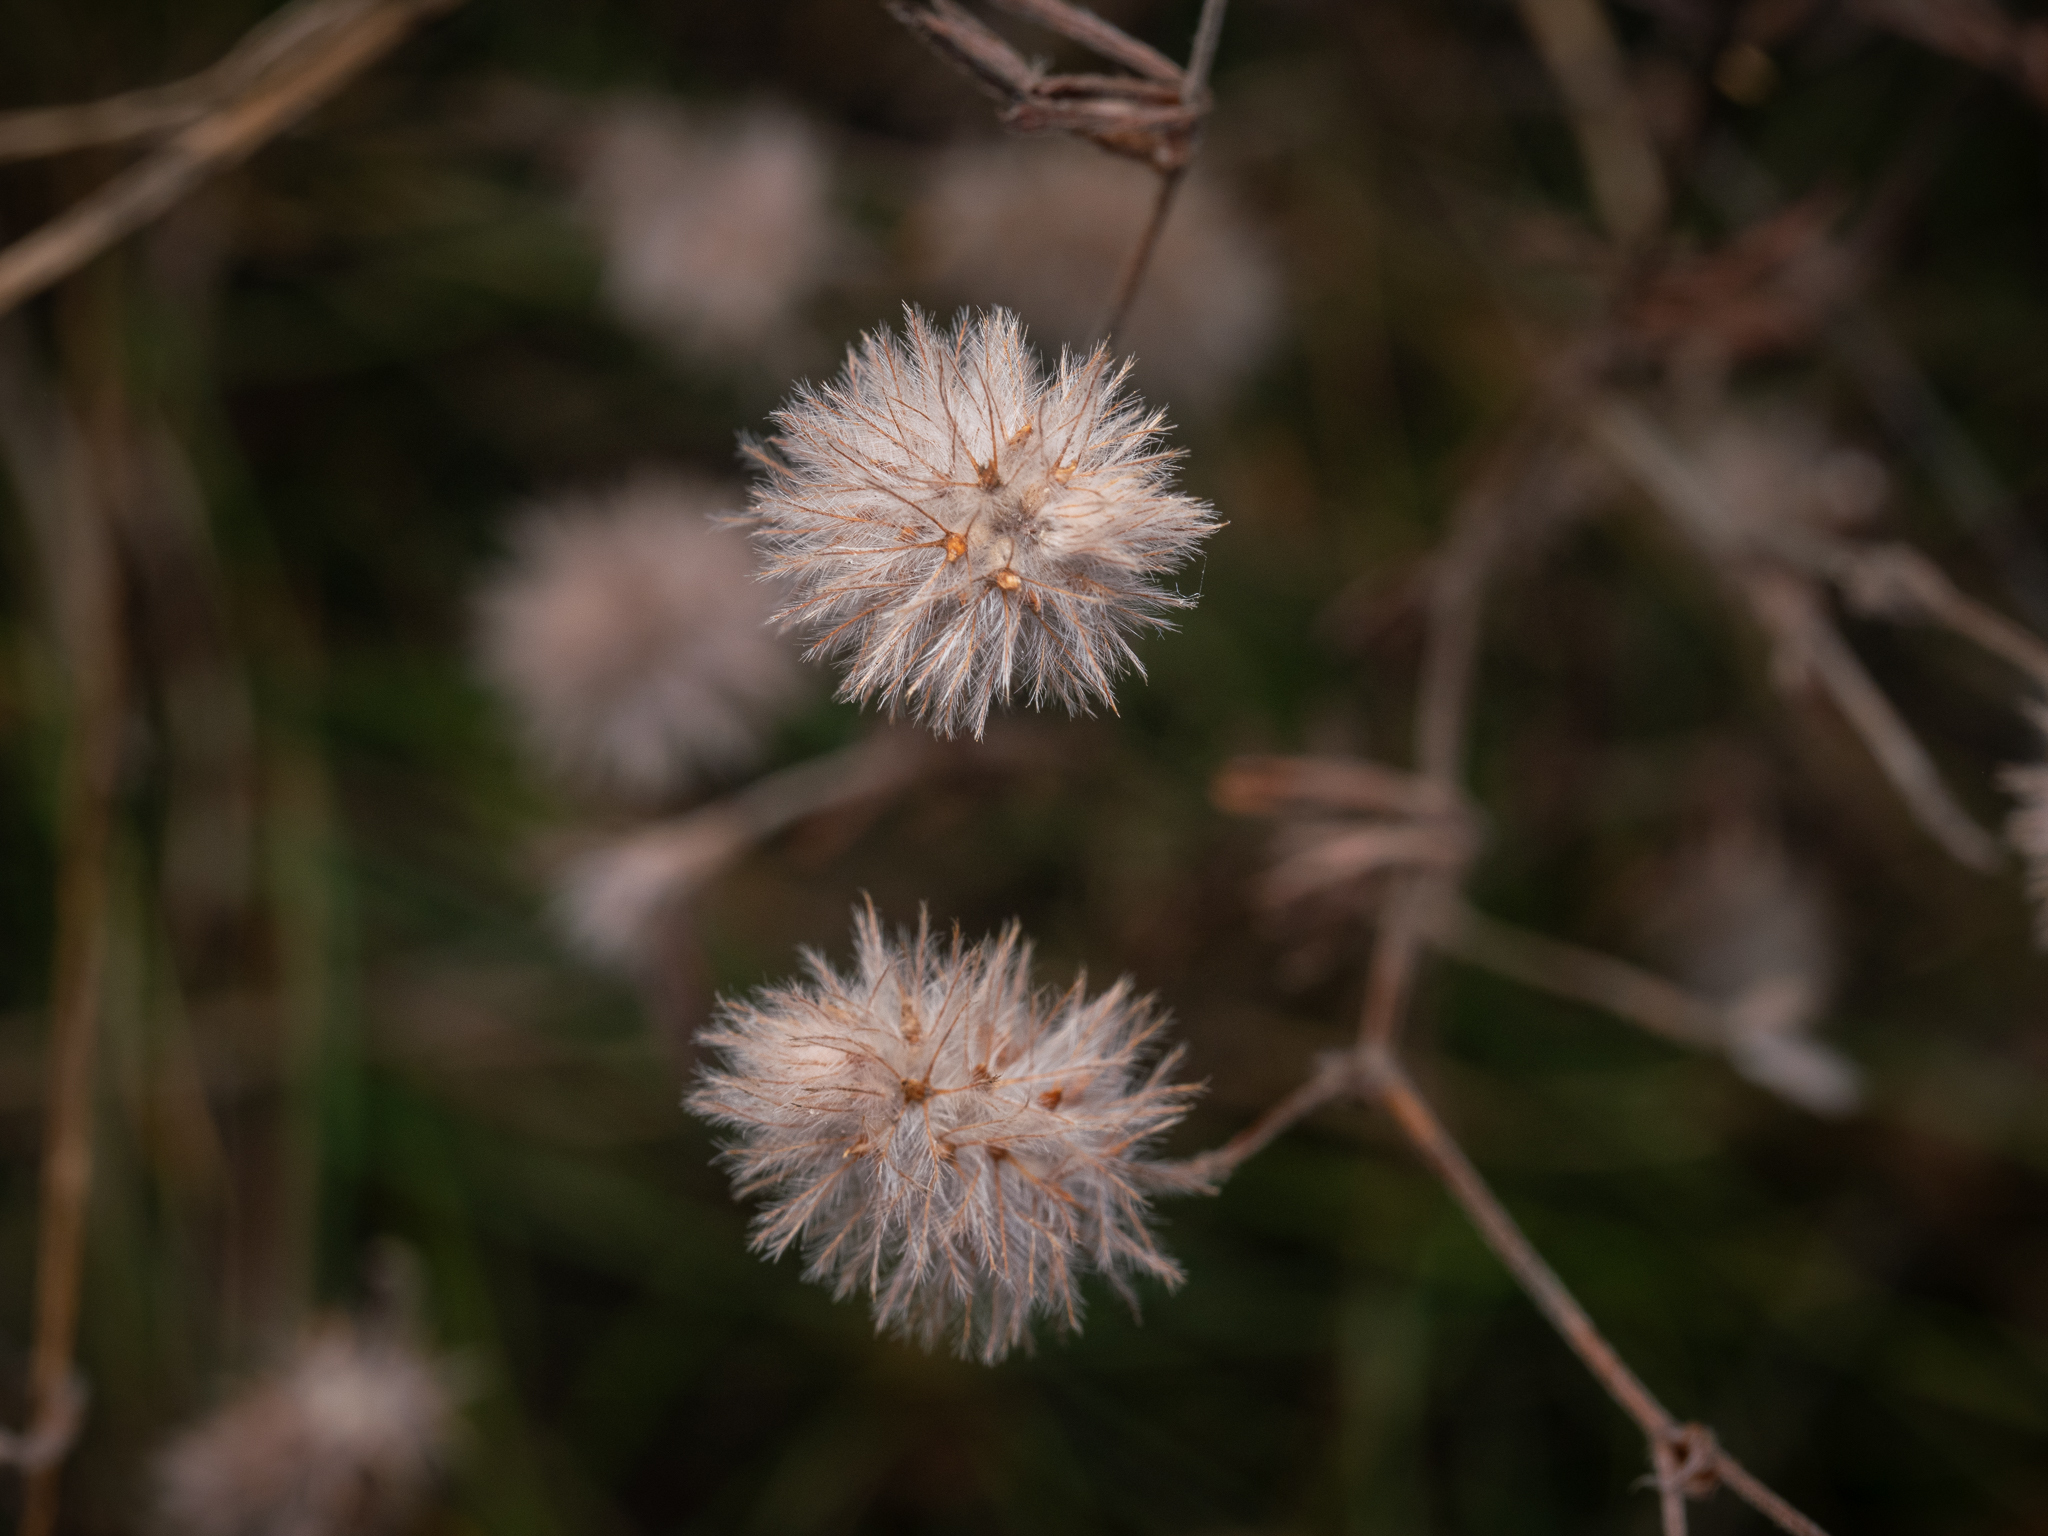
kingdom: Plantae
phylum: Tracheophyta
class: Magnoliopsida
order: Fabales
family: Fabaceae
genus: Trifolium
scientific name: Trifolium arvense
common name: Hare's-foot clover
